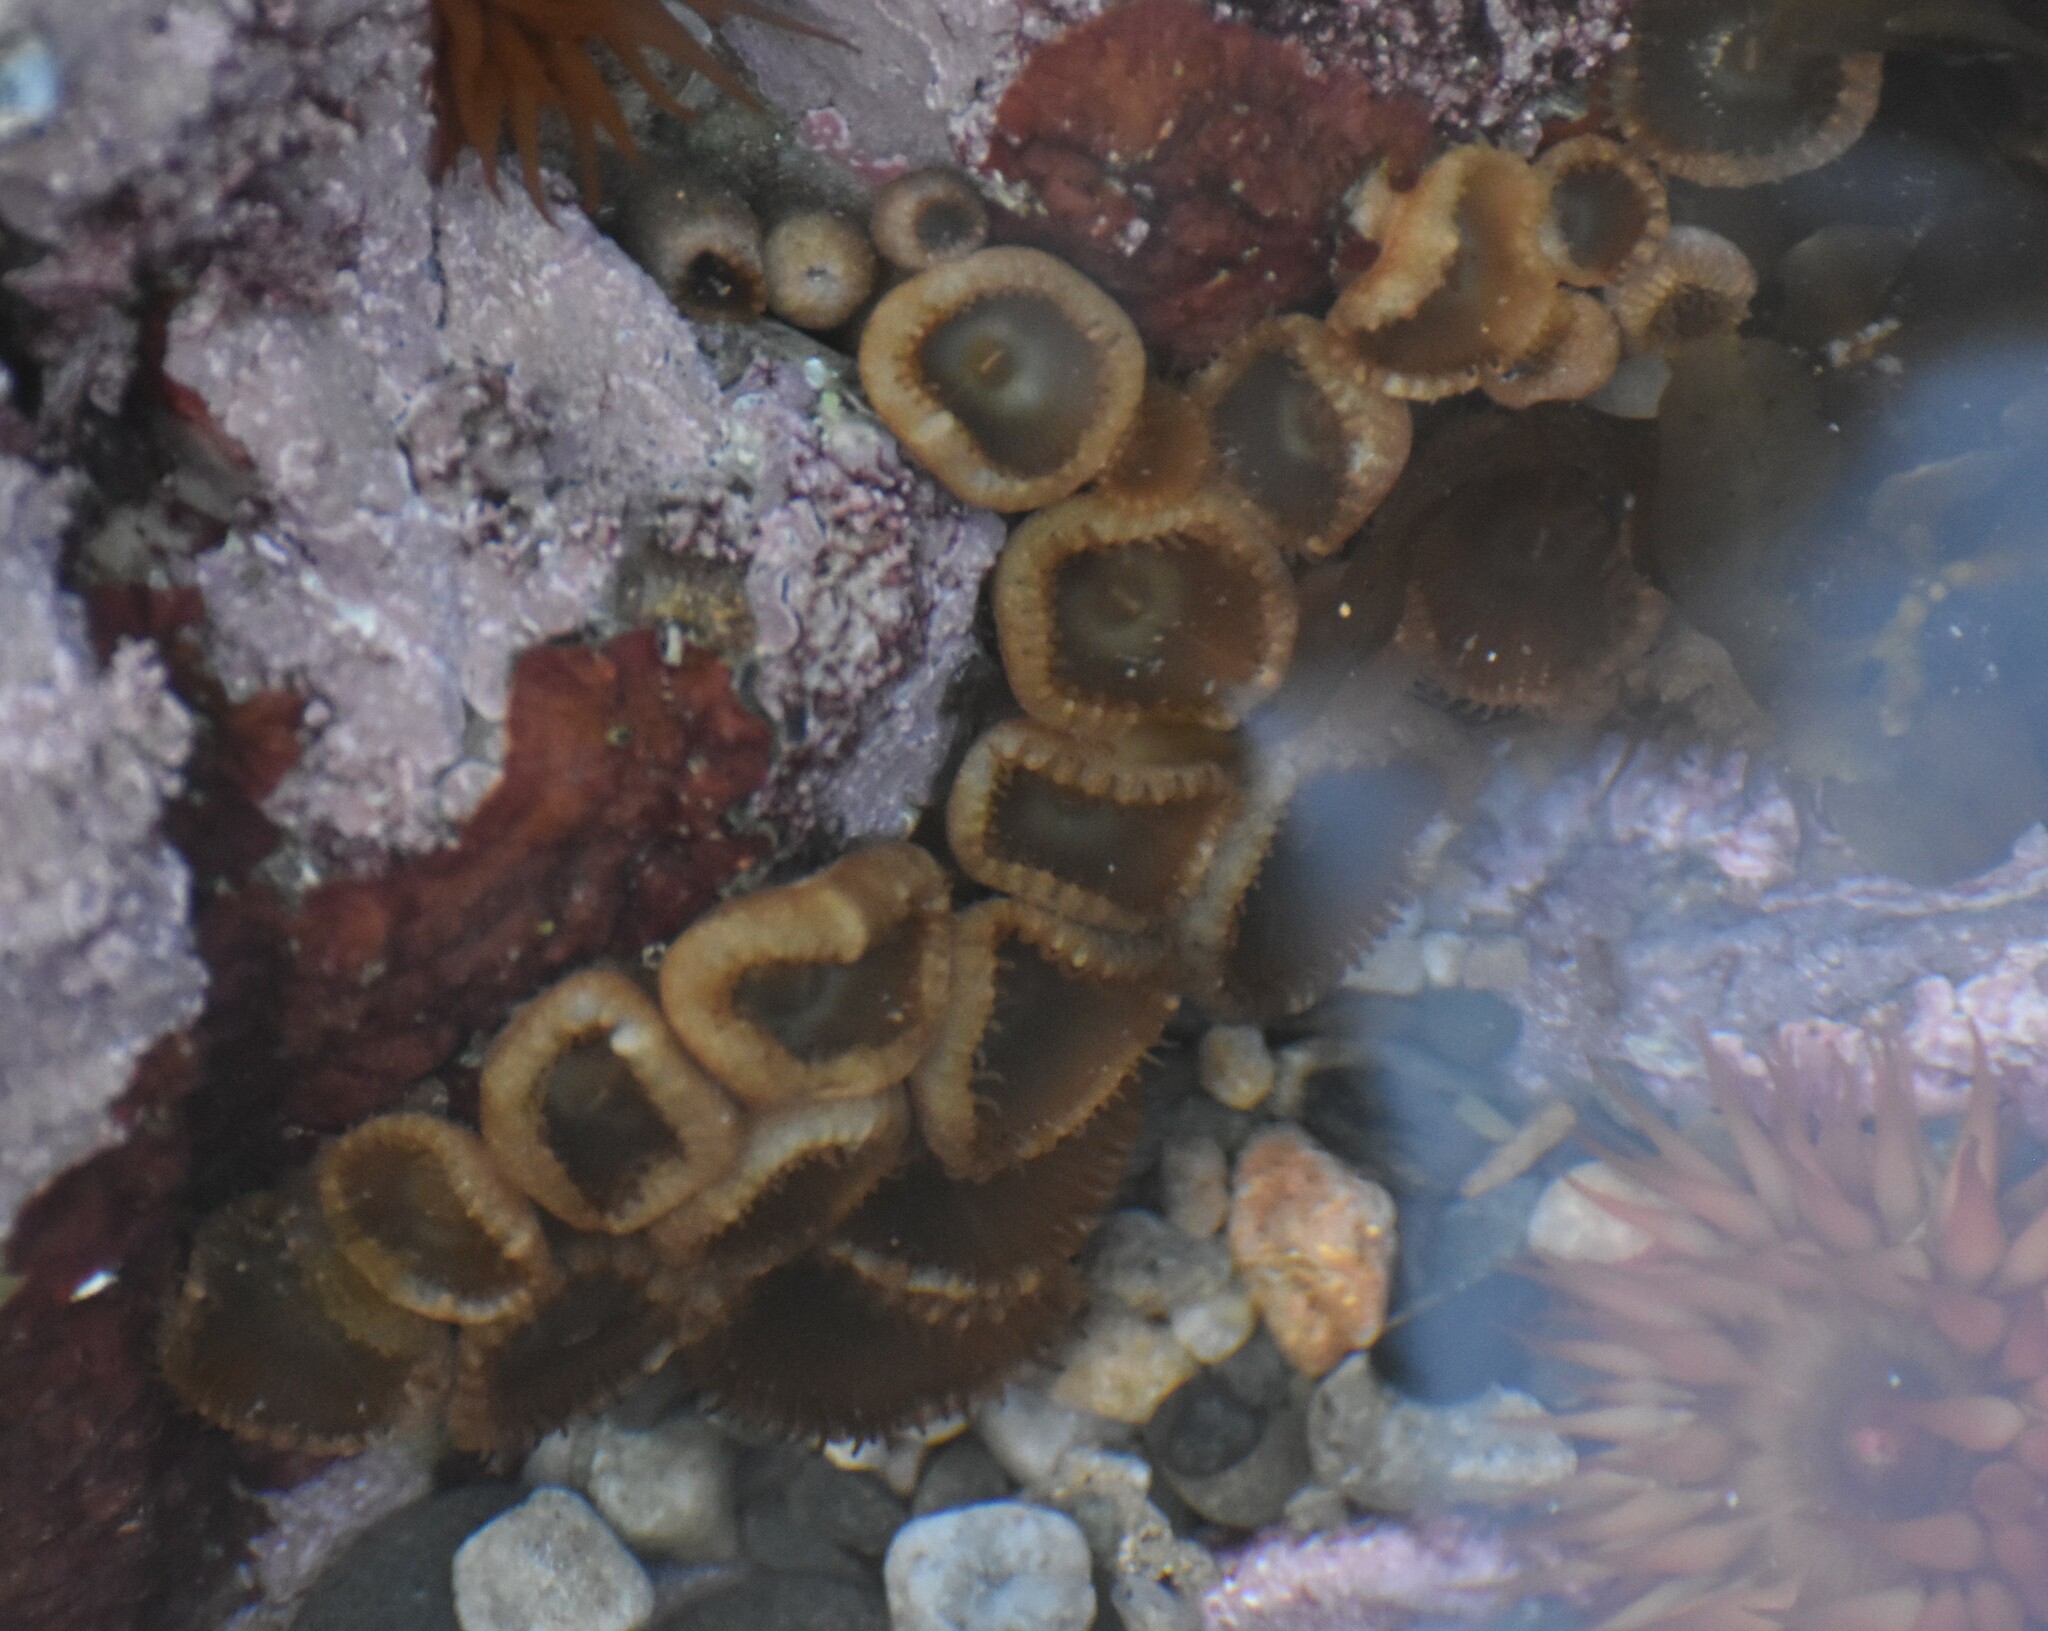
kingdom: Animalia
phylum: Cnidaria
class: Anthozoa
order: Zoantharia
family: Sphenopidae
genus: Palythoa
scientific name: Palythoa mutuki
